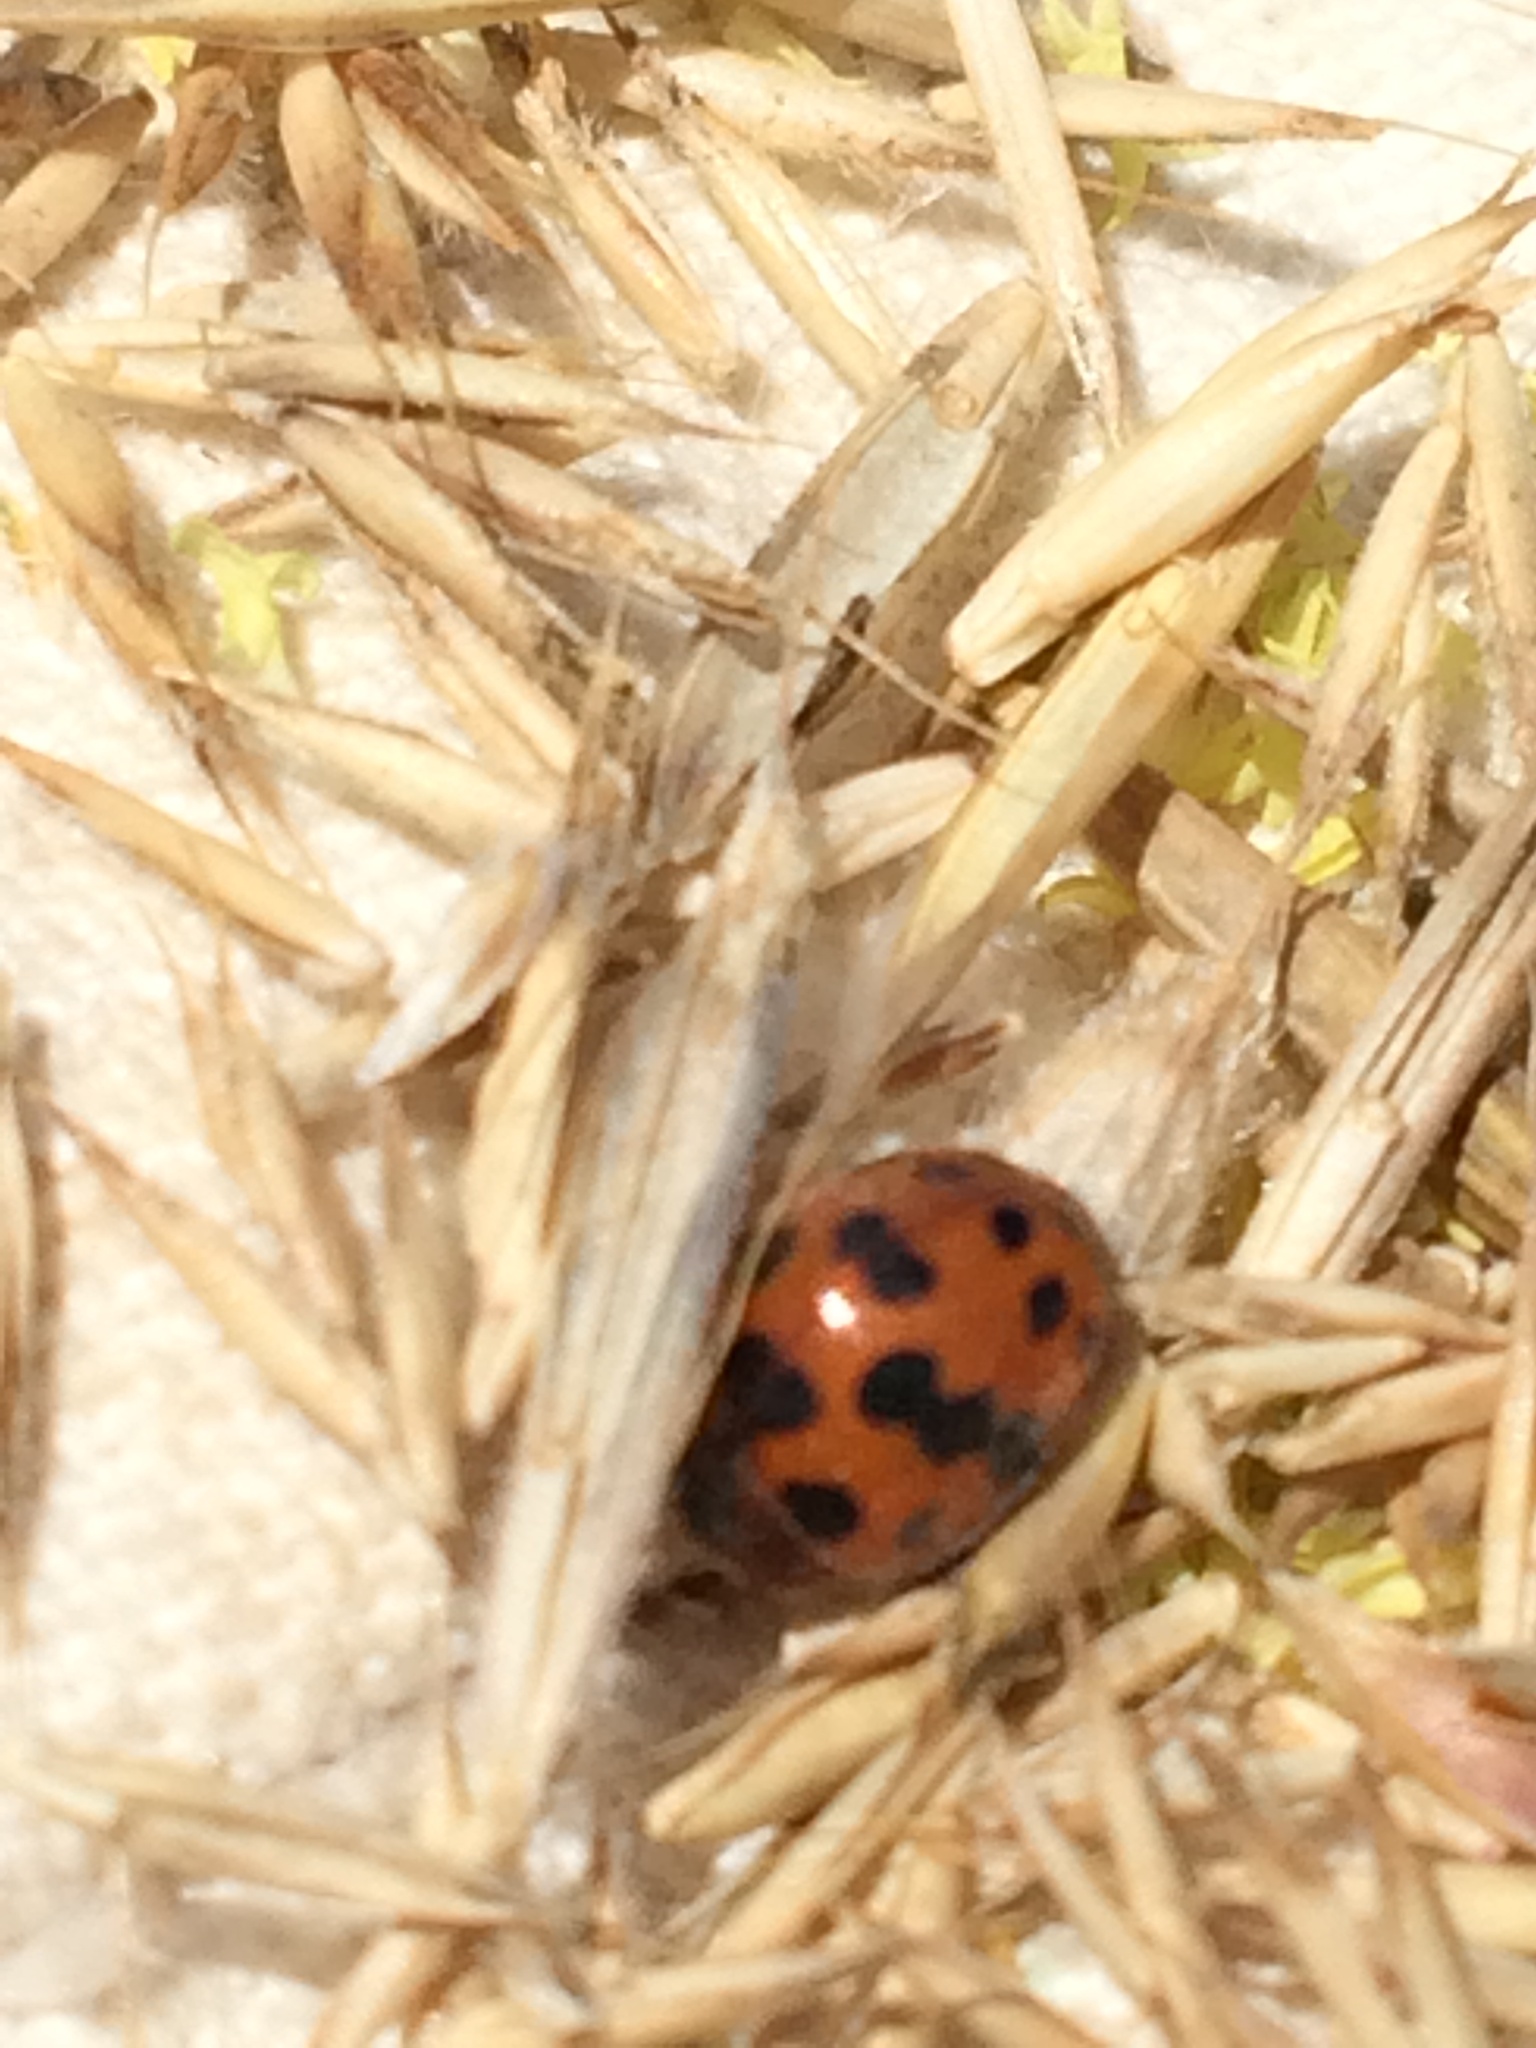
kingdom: Animalia
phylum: Arthropoda
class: Insecta
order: Coleoptera
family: Coccinellidae
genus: Subcoccinella
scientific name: Subcoccinella vigintiquatuorpunctata
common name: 24-spot ladybird
